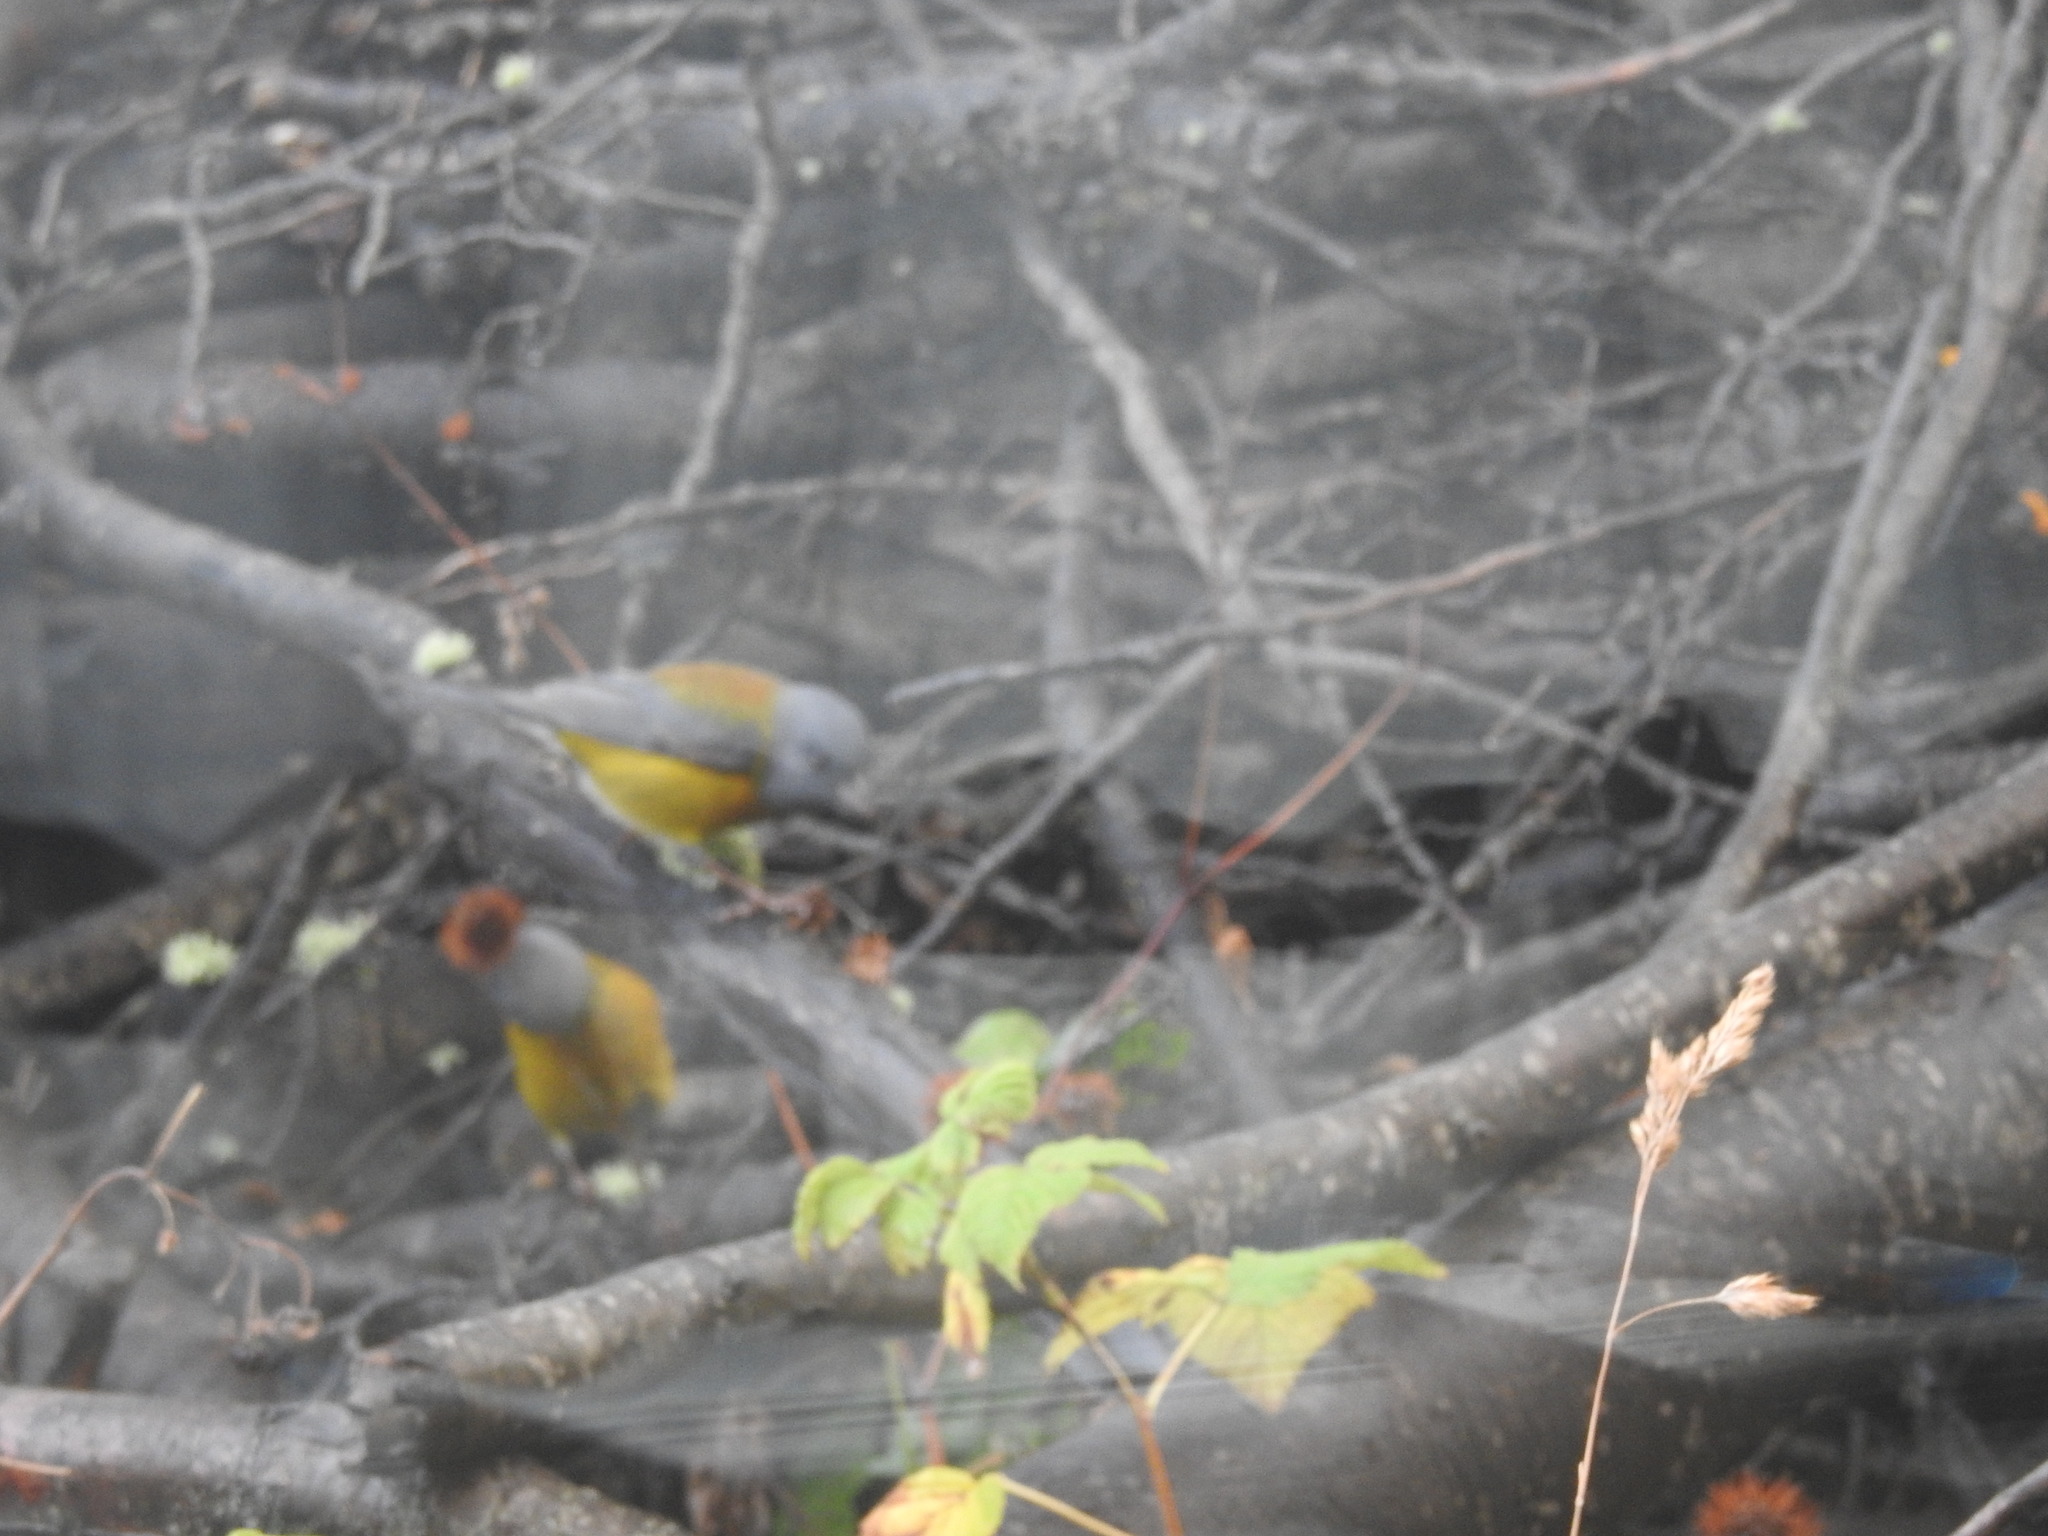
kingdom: Animalia
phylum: Chordata
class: Aves
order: Passeriformes
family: Thraupidae
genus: Phrygilus
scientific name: Phrygilus patagonicus
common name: Patagonian sierra finch
